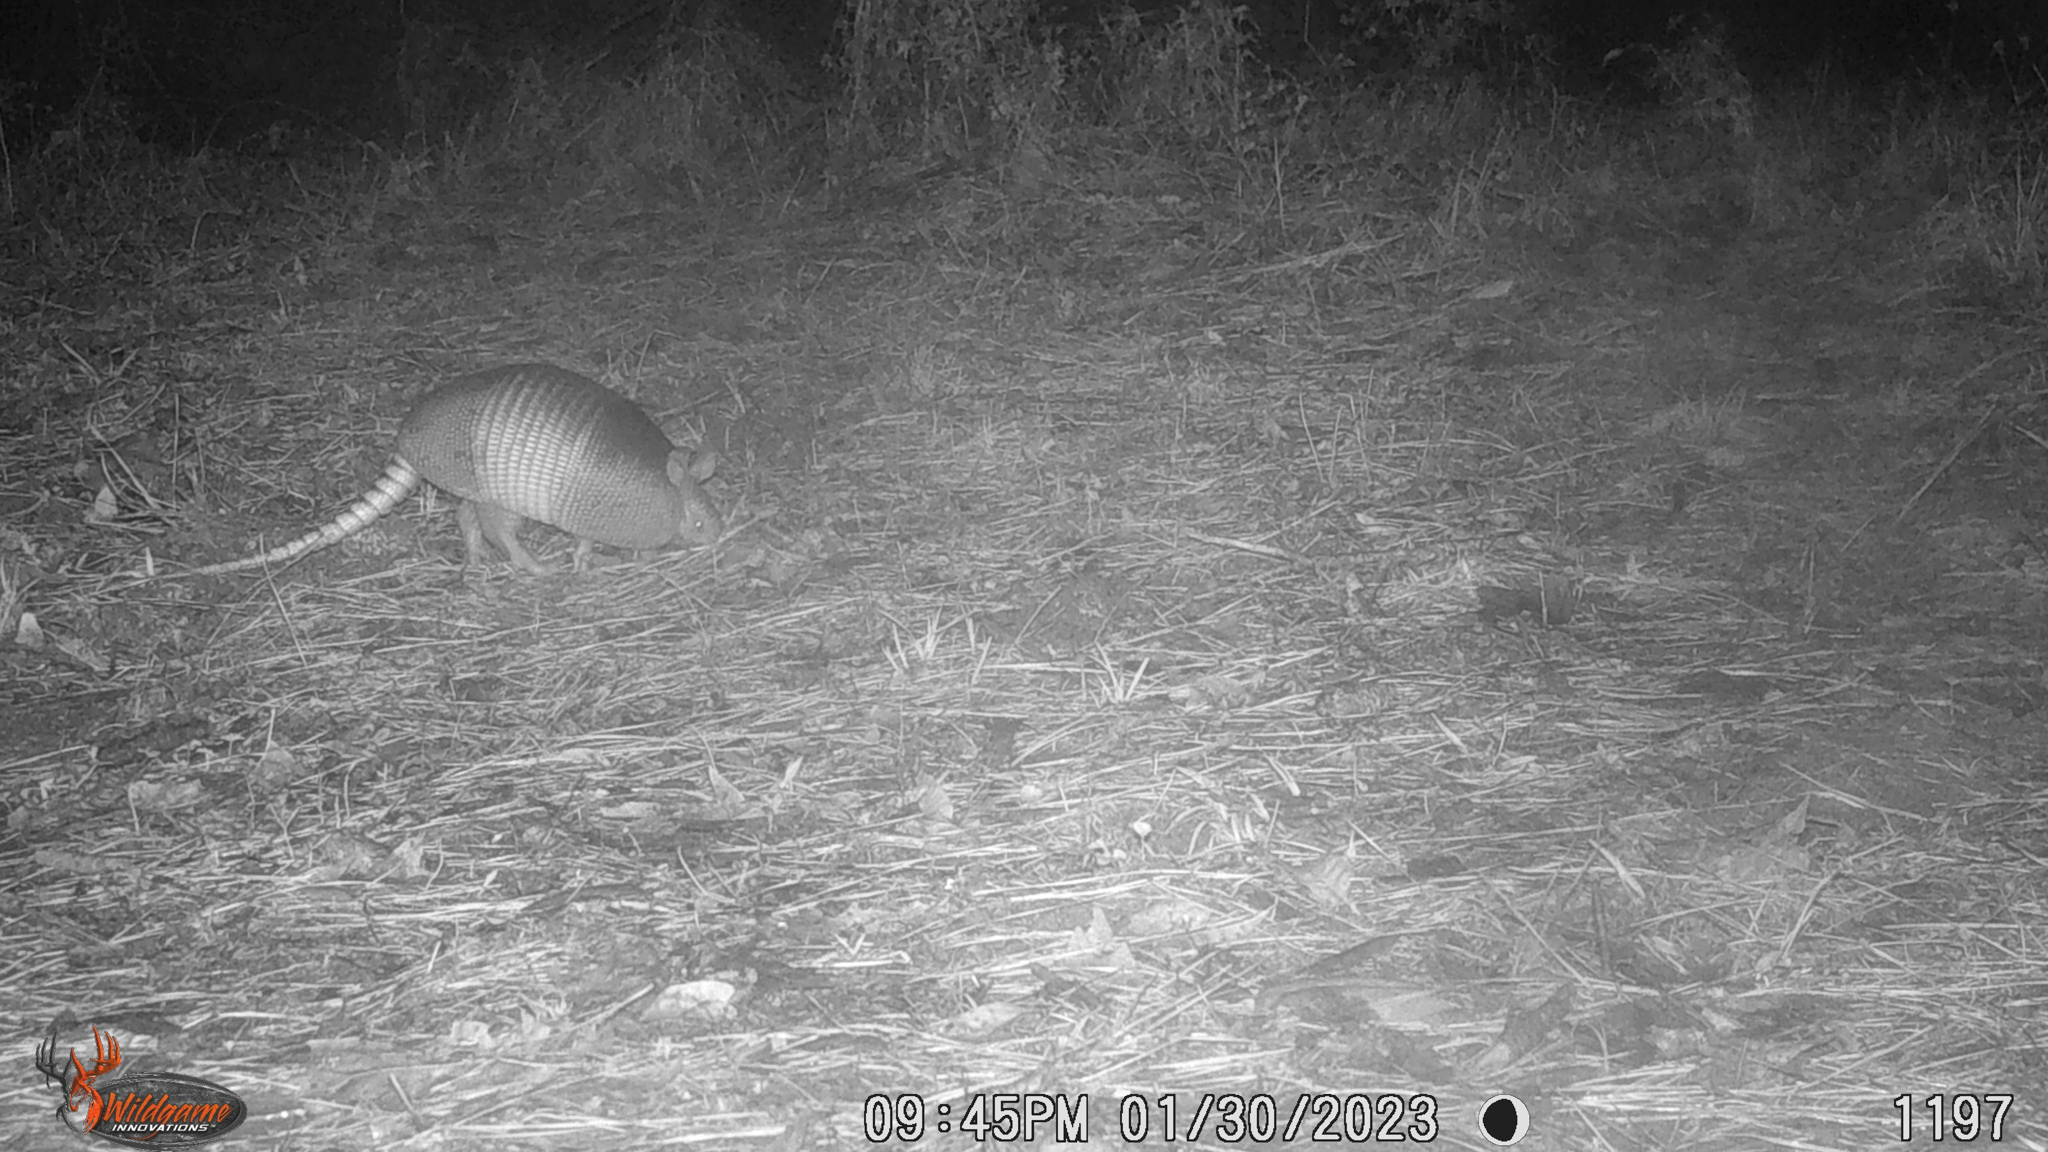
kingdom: Animalia
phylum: Chordata
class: Mammalia
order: Cingulata
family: Dasypodidae
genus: Dasypus
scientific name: Dasypus novemcinctus
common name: Nine-banded armadillo
